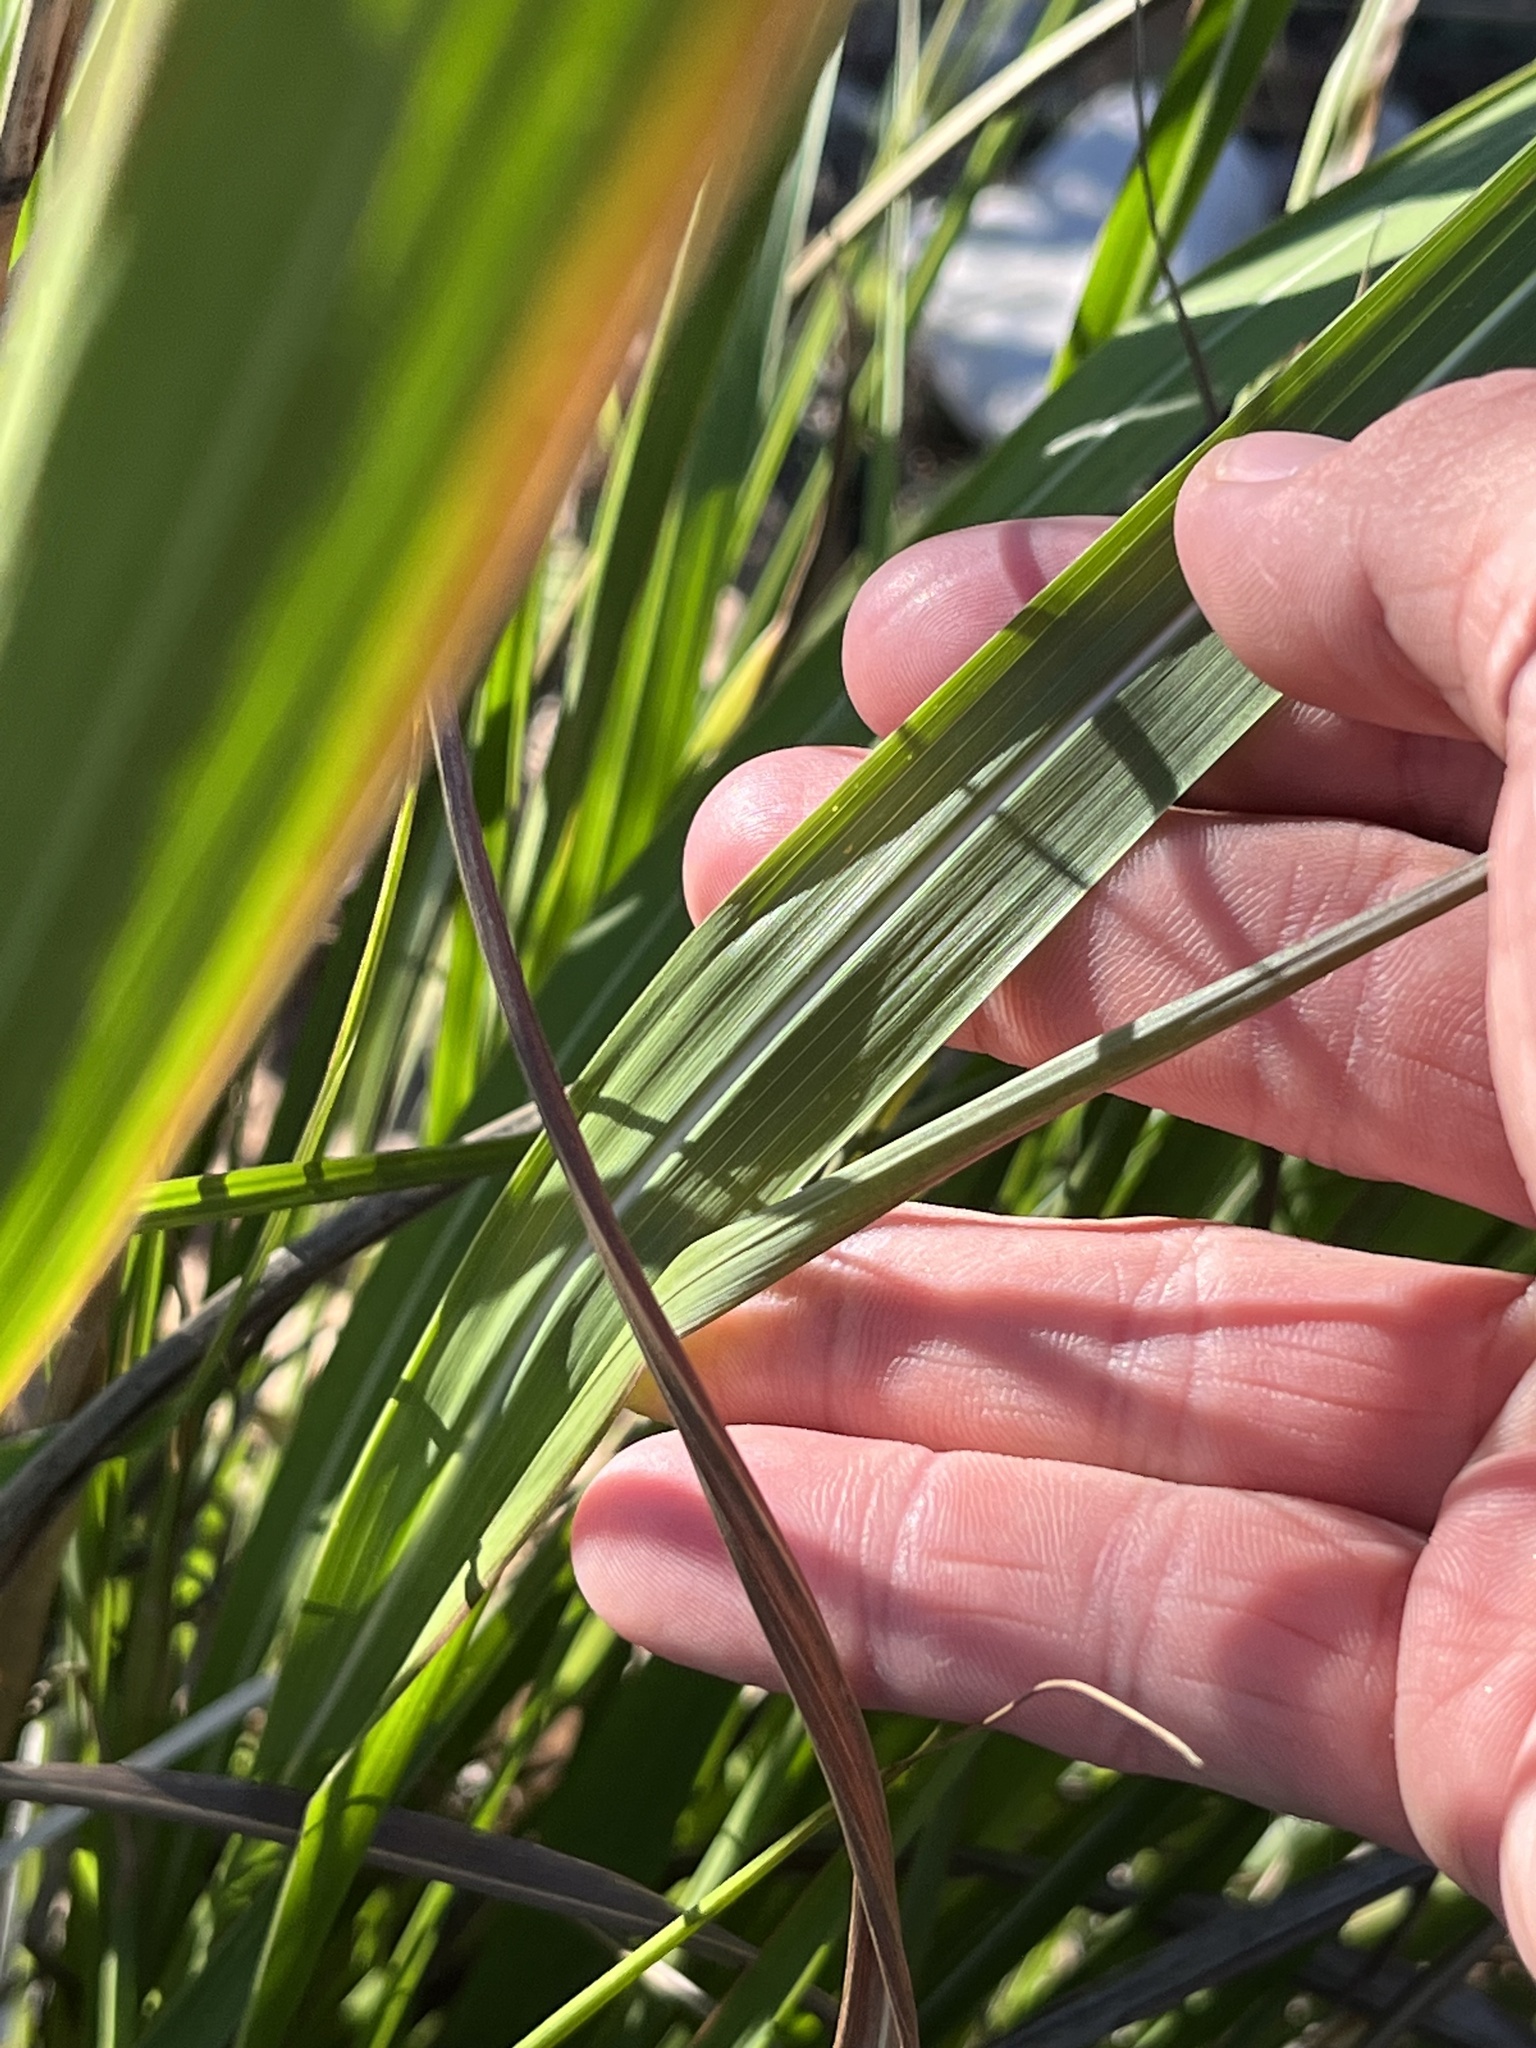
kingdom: Plantae
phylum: Tracheophyta
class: Liliopsida
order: Poales
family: Poaceae
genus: Tripsacum
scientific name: Tripsacum dactyloides
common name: Buffalo-grass
